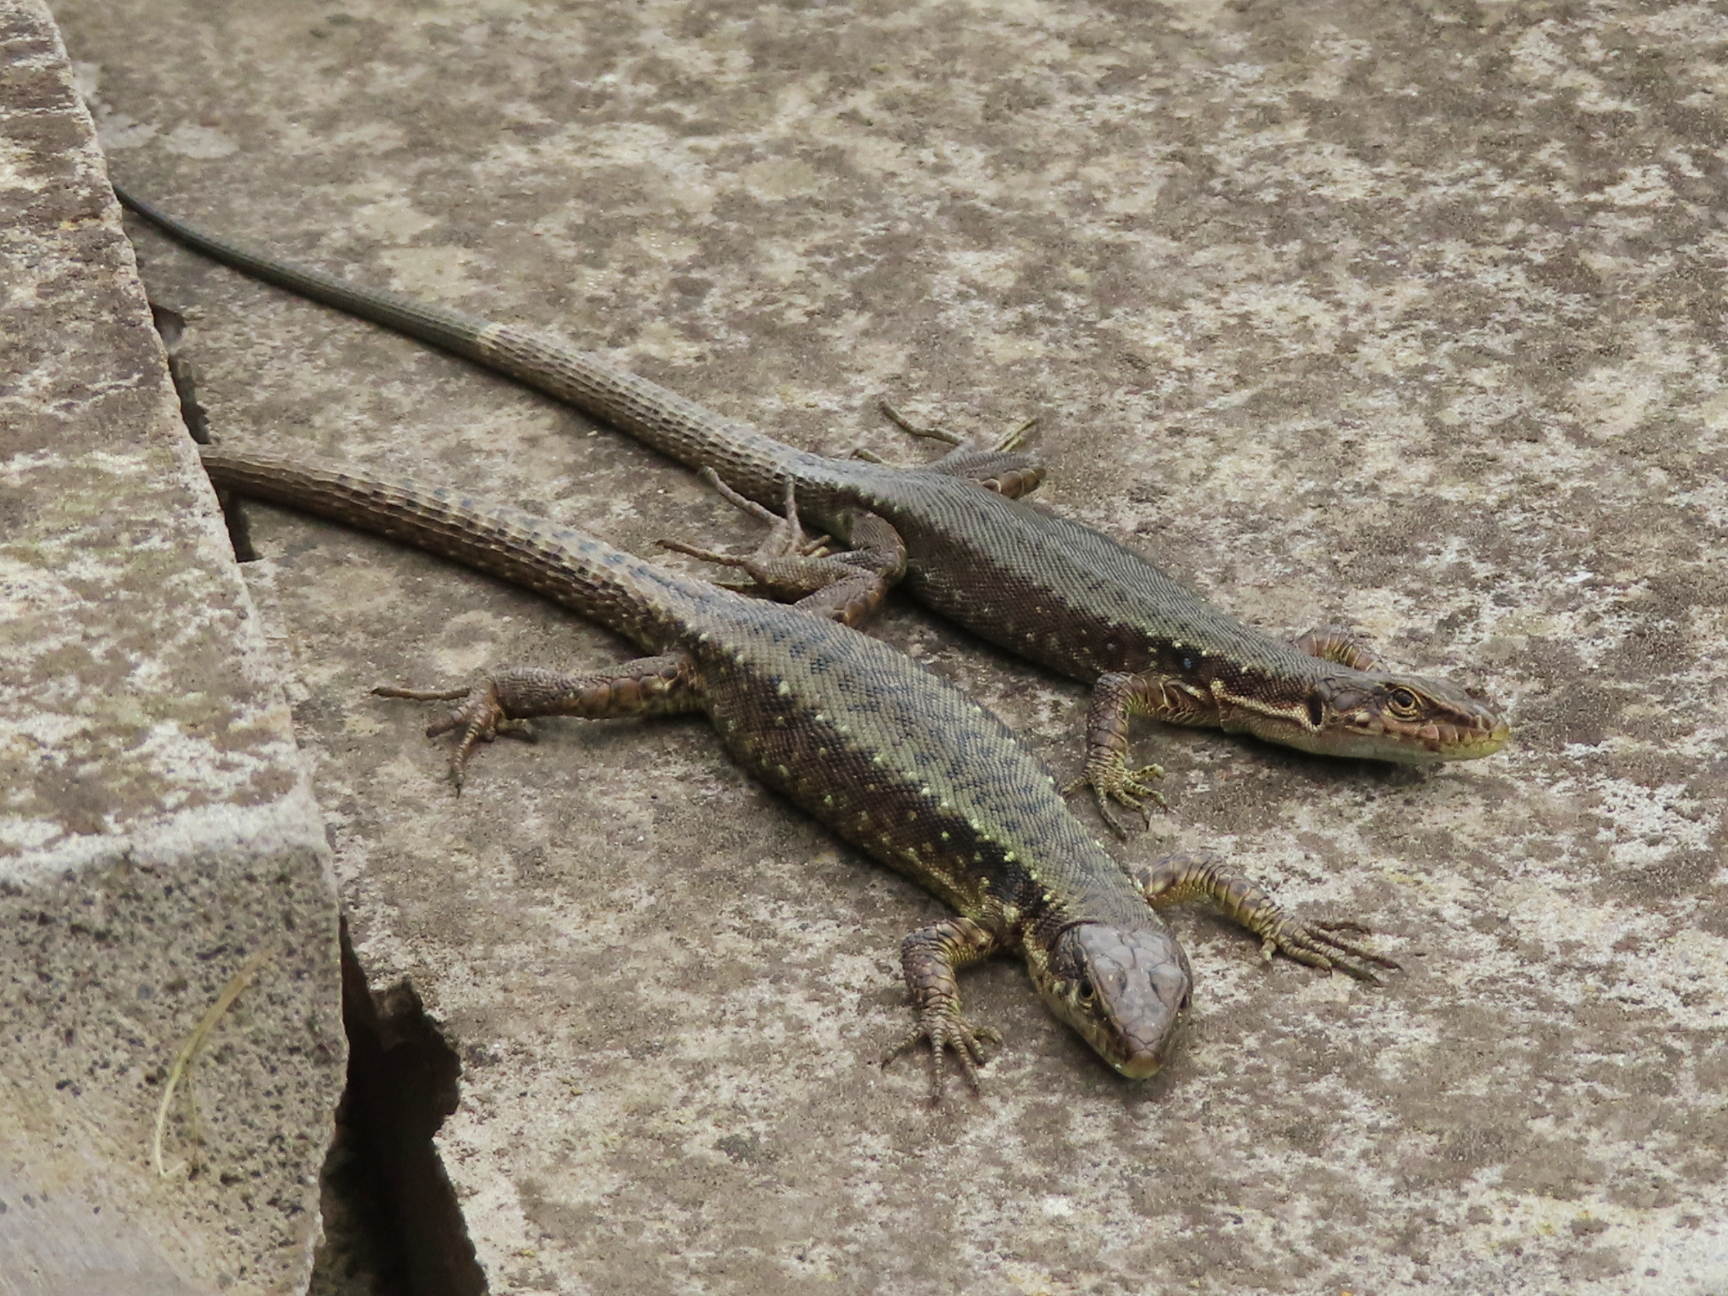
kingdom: Animalia
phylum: Chordata
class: Squamata
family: Lacertidae
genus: Darevskia
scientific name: Darevskia armeniaca
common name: Armenian lizard
